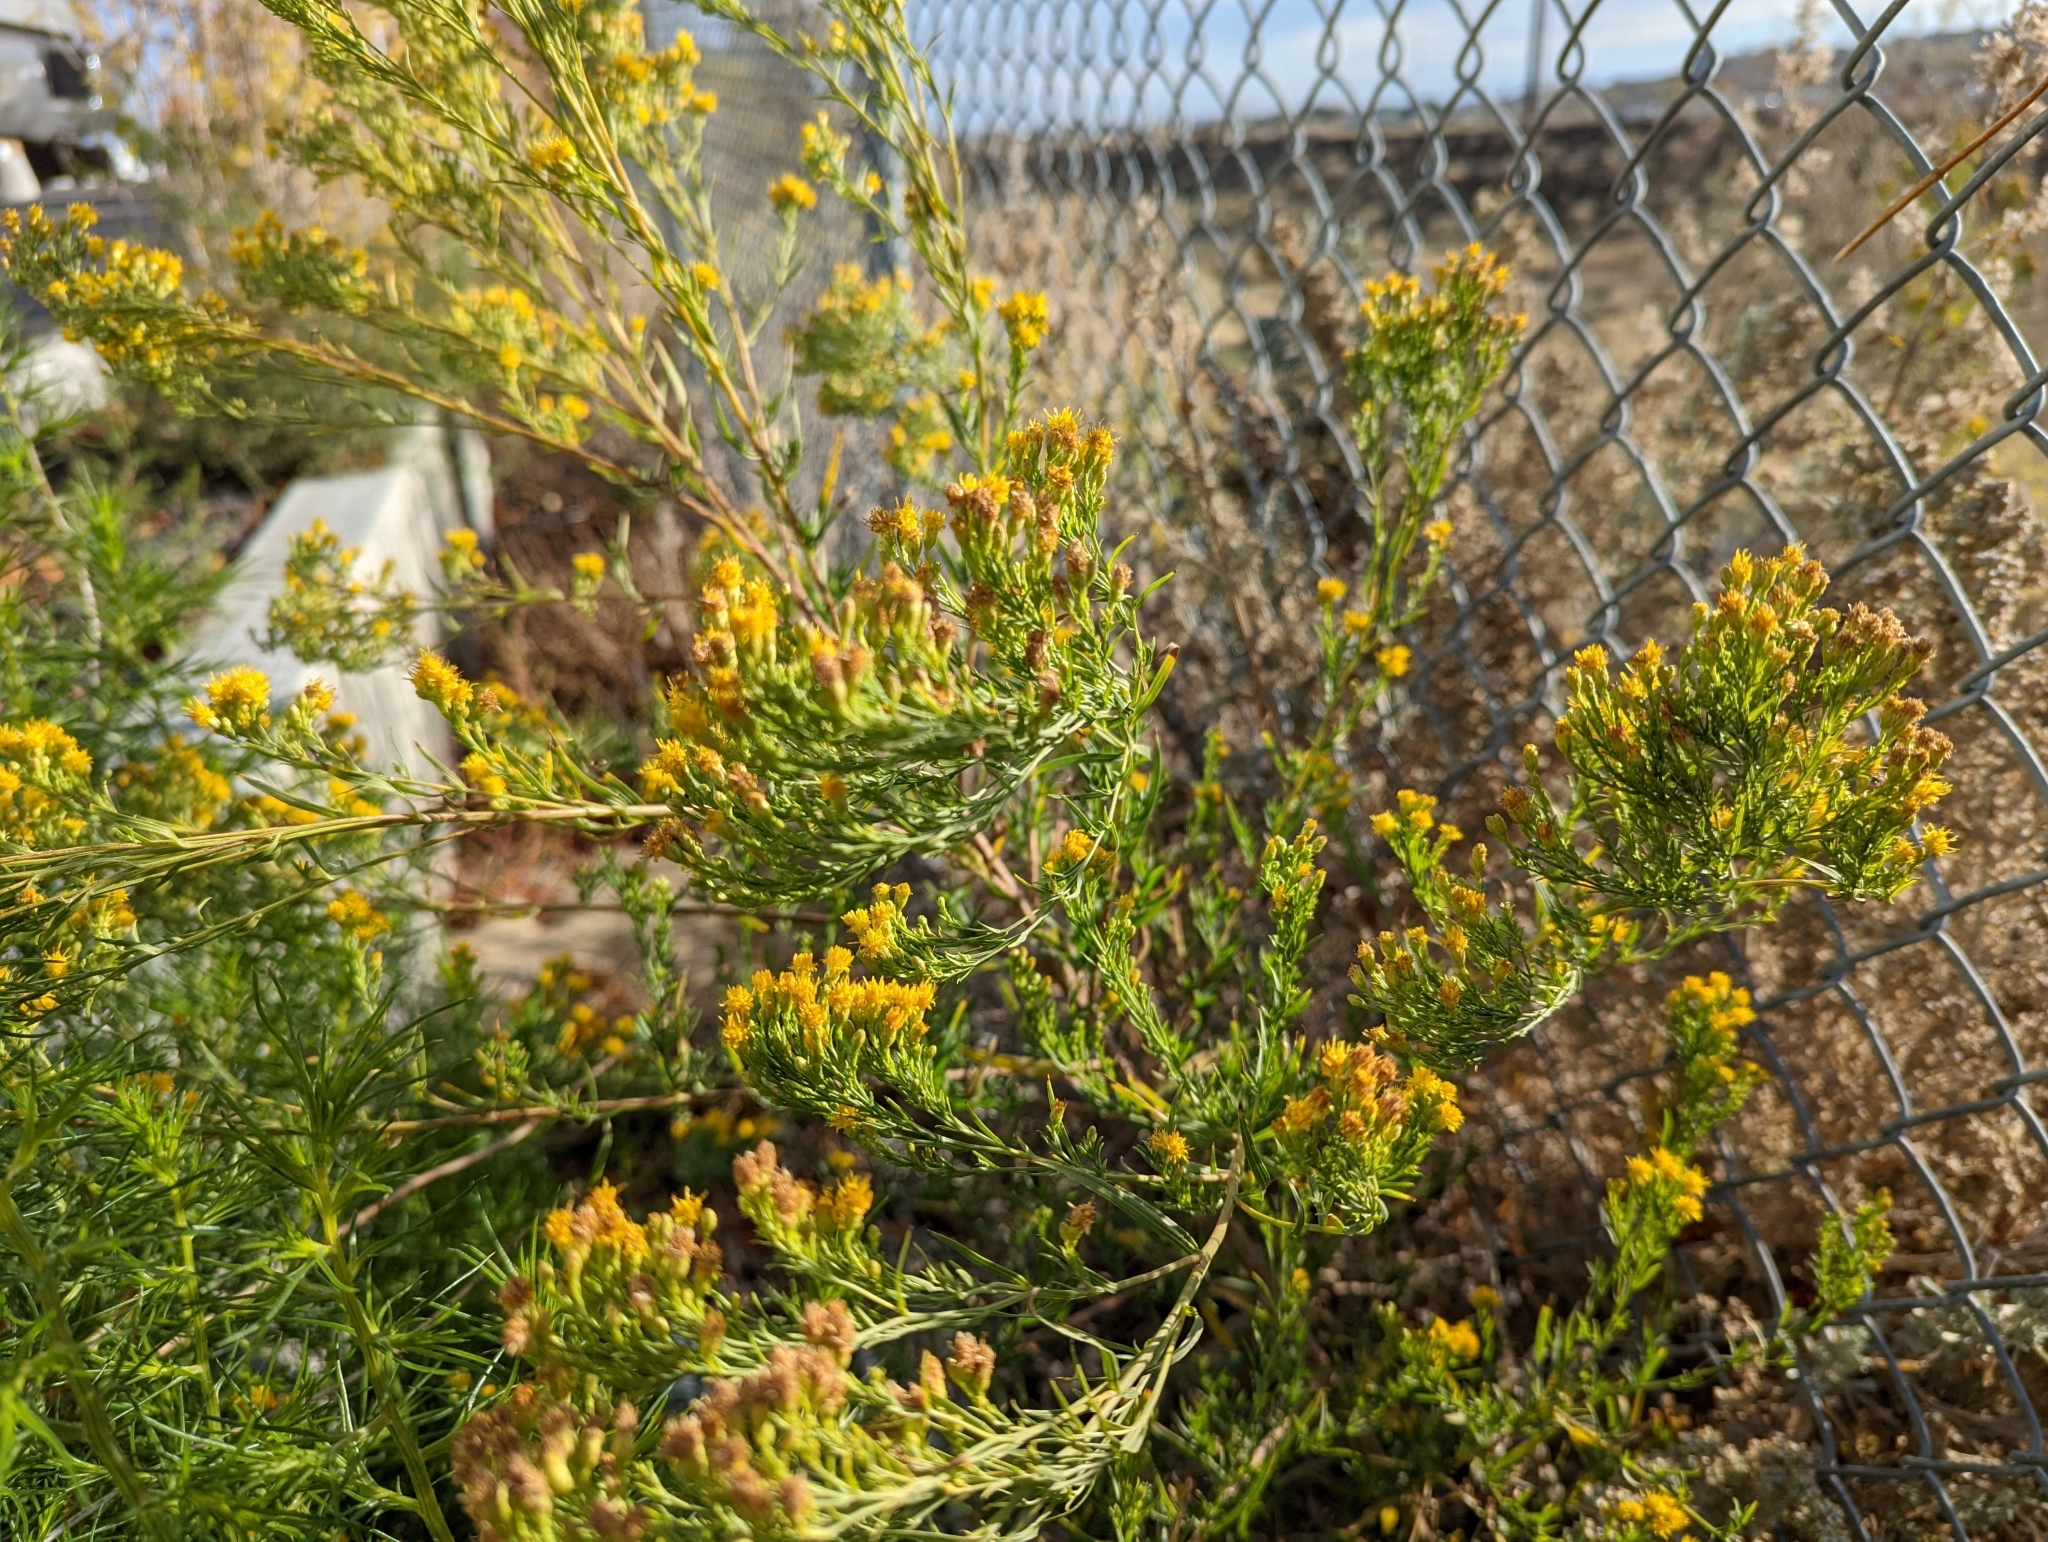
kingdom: Plantae
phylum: Tracheophyta
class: Magnoliopsida
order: Asterales
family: Asteraceae
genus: Euthamia
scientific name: Euthamia occidentalis
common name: Western goldentop
